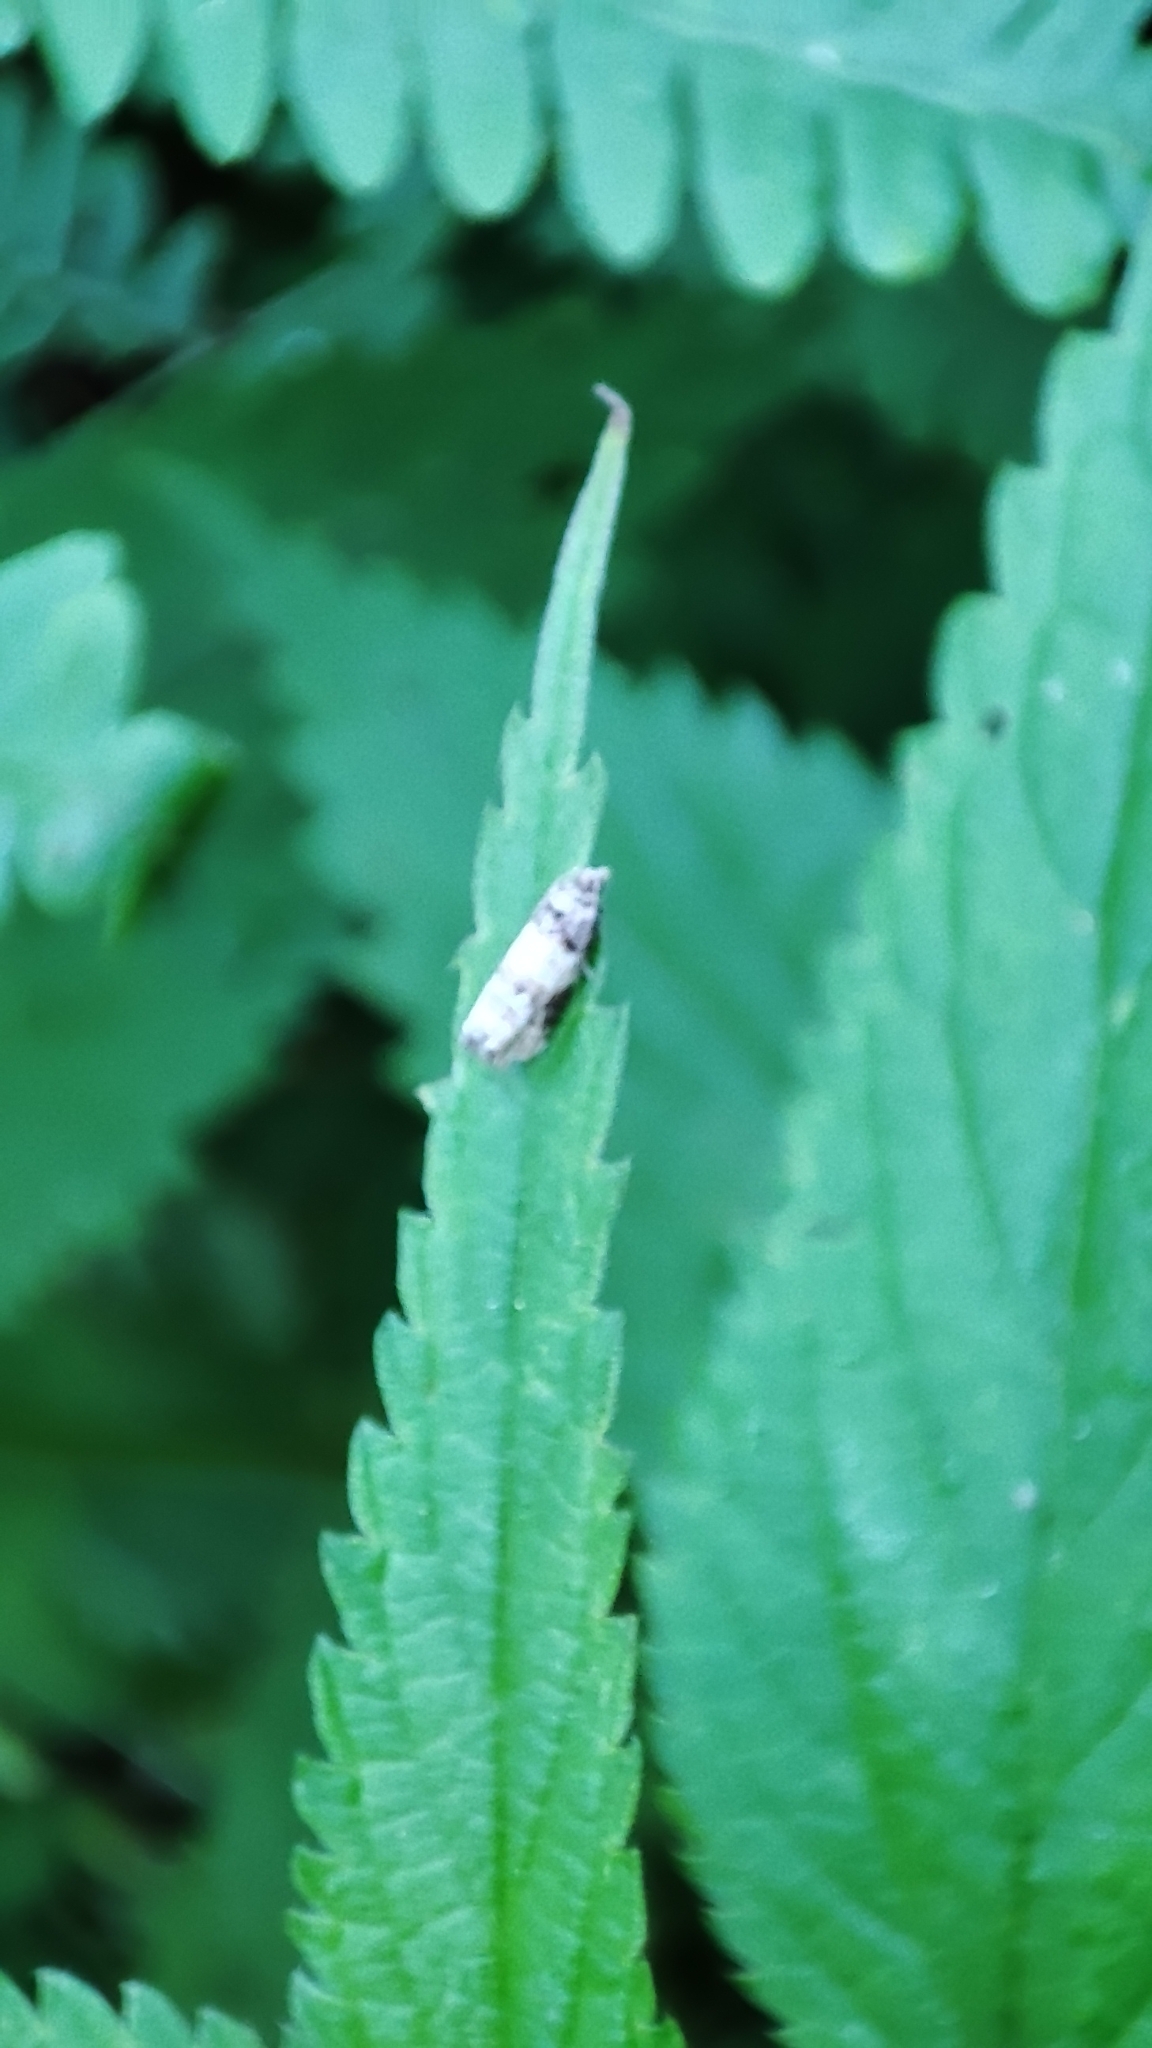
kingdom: Animalia
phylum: Arthropoda
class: Insecta
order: Lepidoptera
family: Tortricidae
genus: Piniphila
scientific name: Piniphila bifasciana
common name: Pine marble
